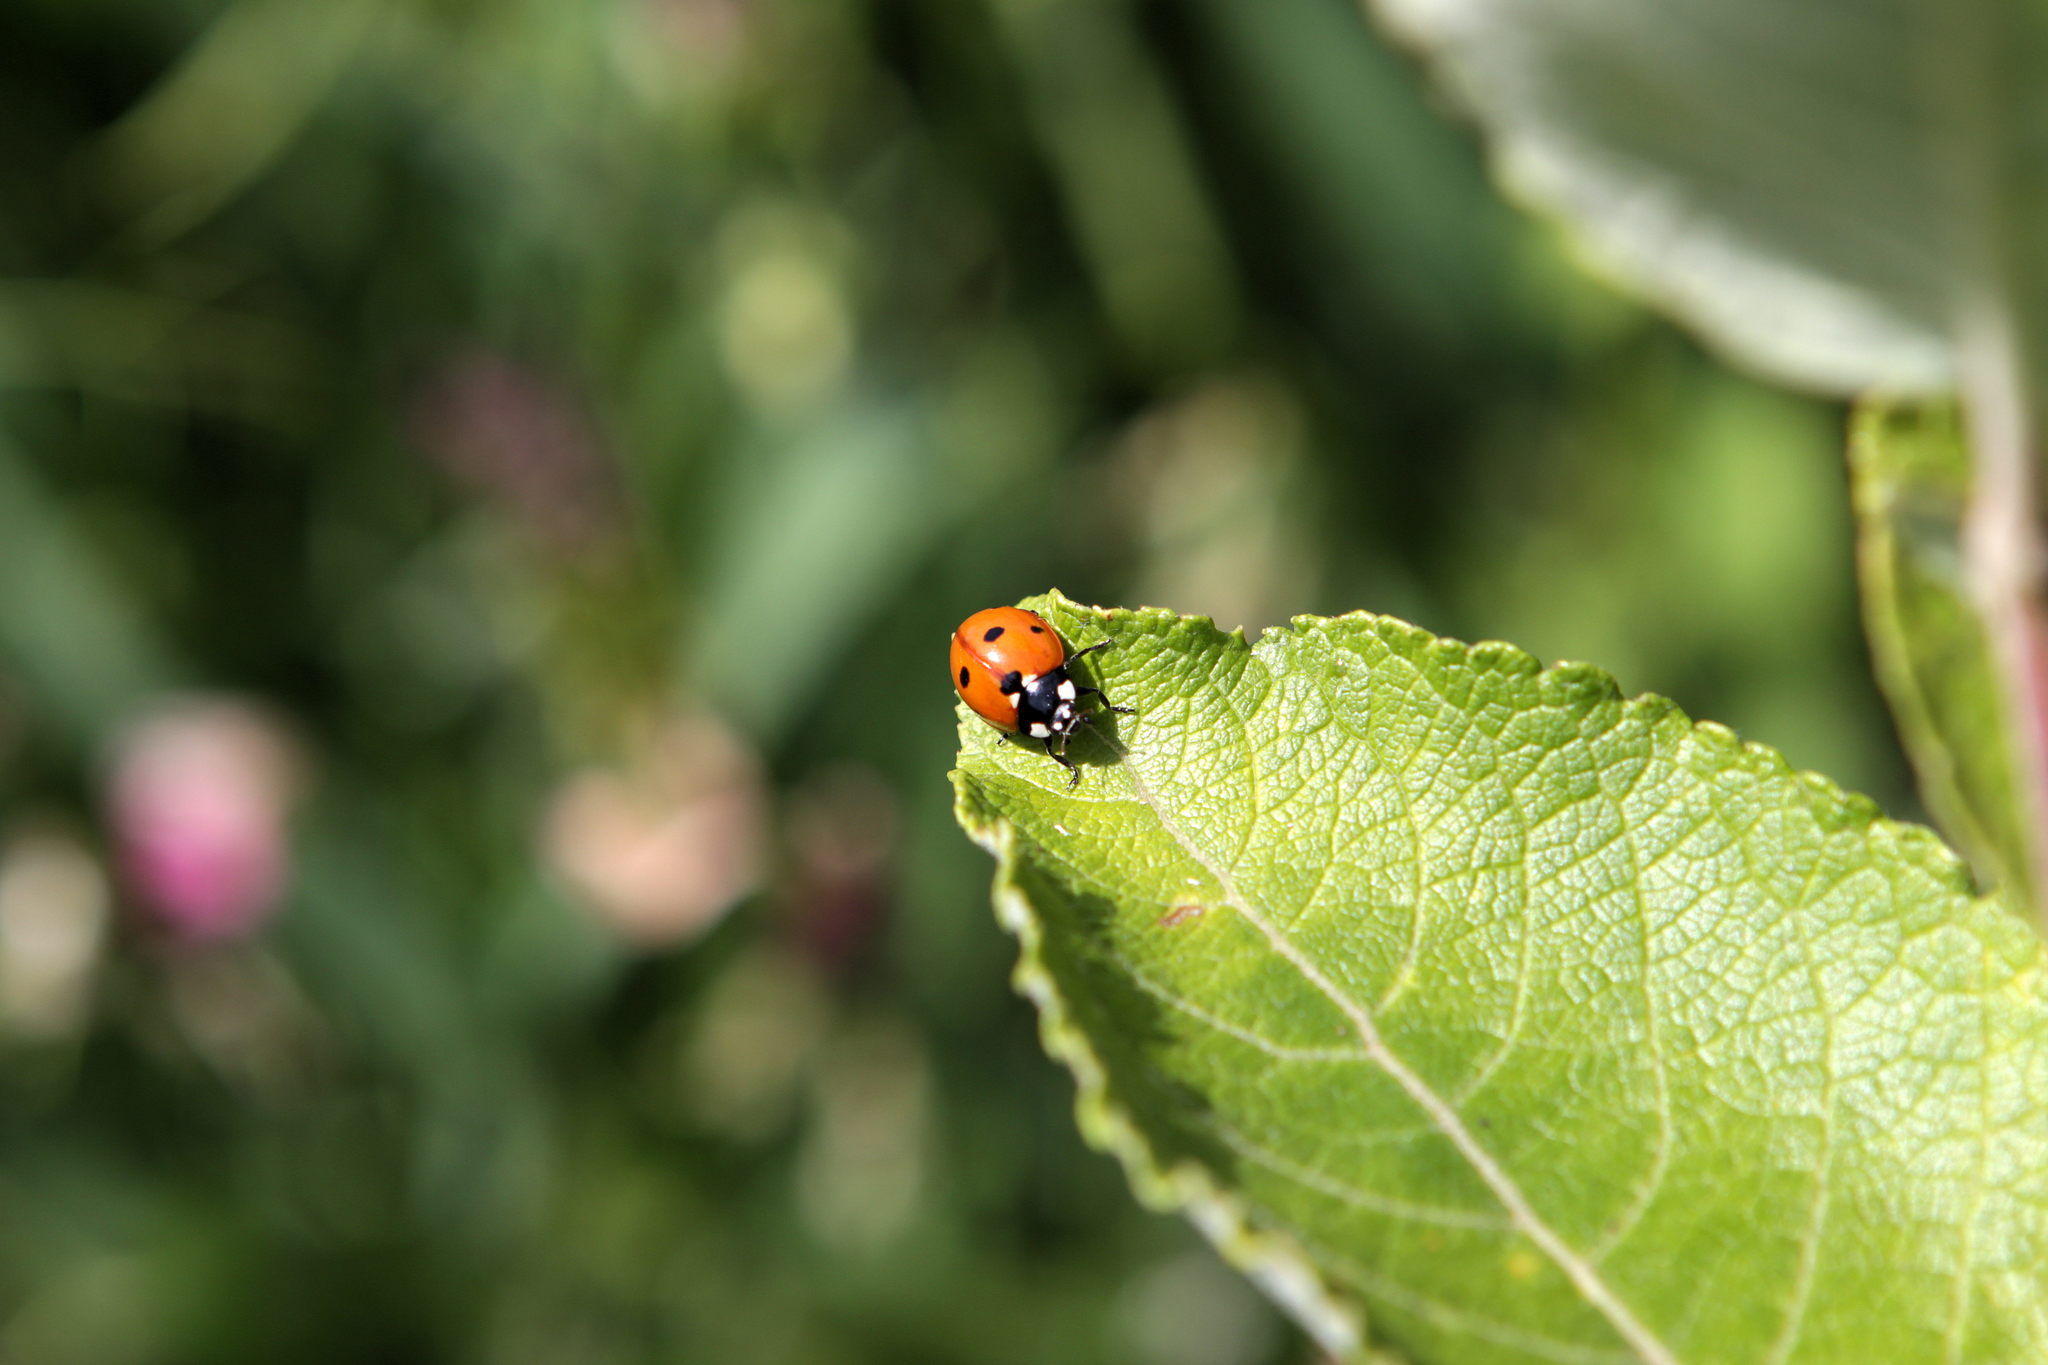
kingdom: Animalia
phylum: Arthropoda
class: Insecta
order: Coleoptera
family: Coccinellidae
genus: Coccinella
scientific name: Coccinella septempunctata
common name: Sevenspotted lady beetle
